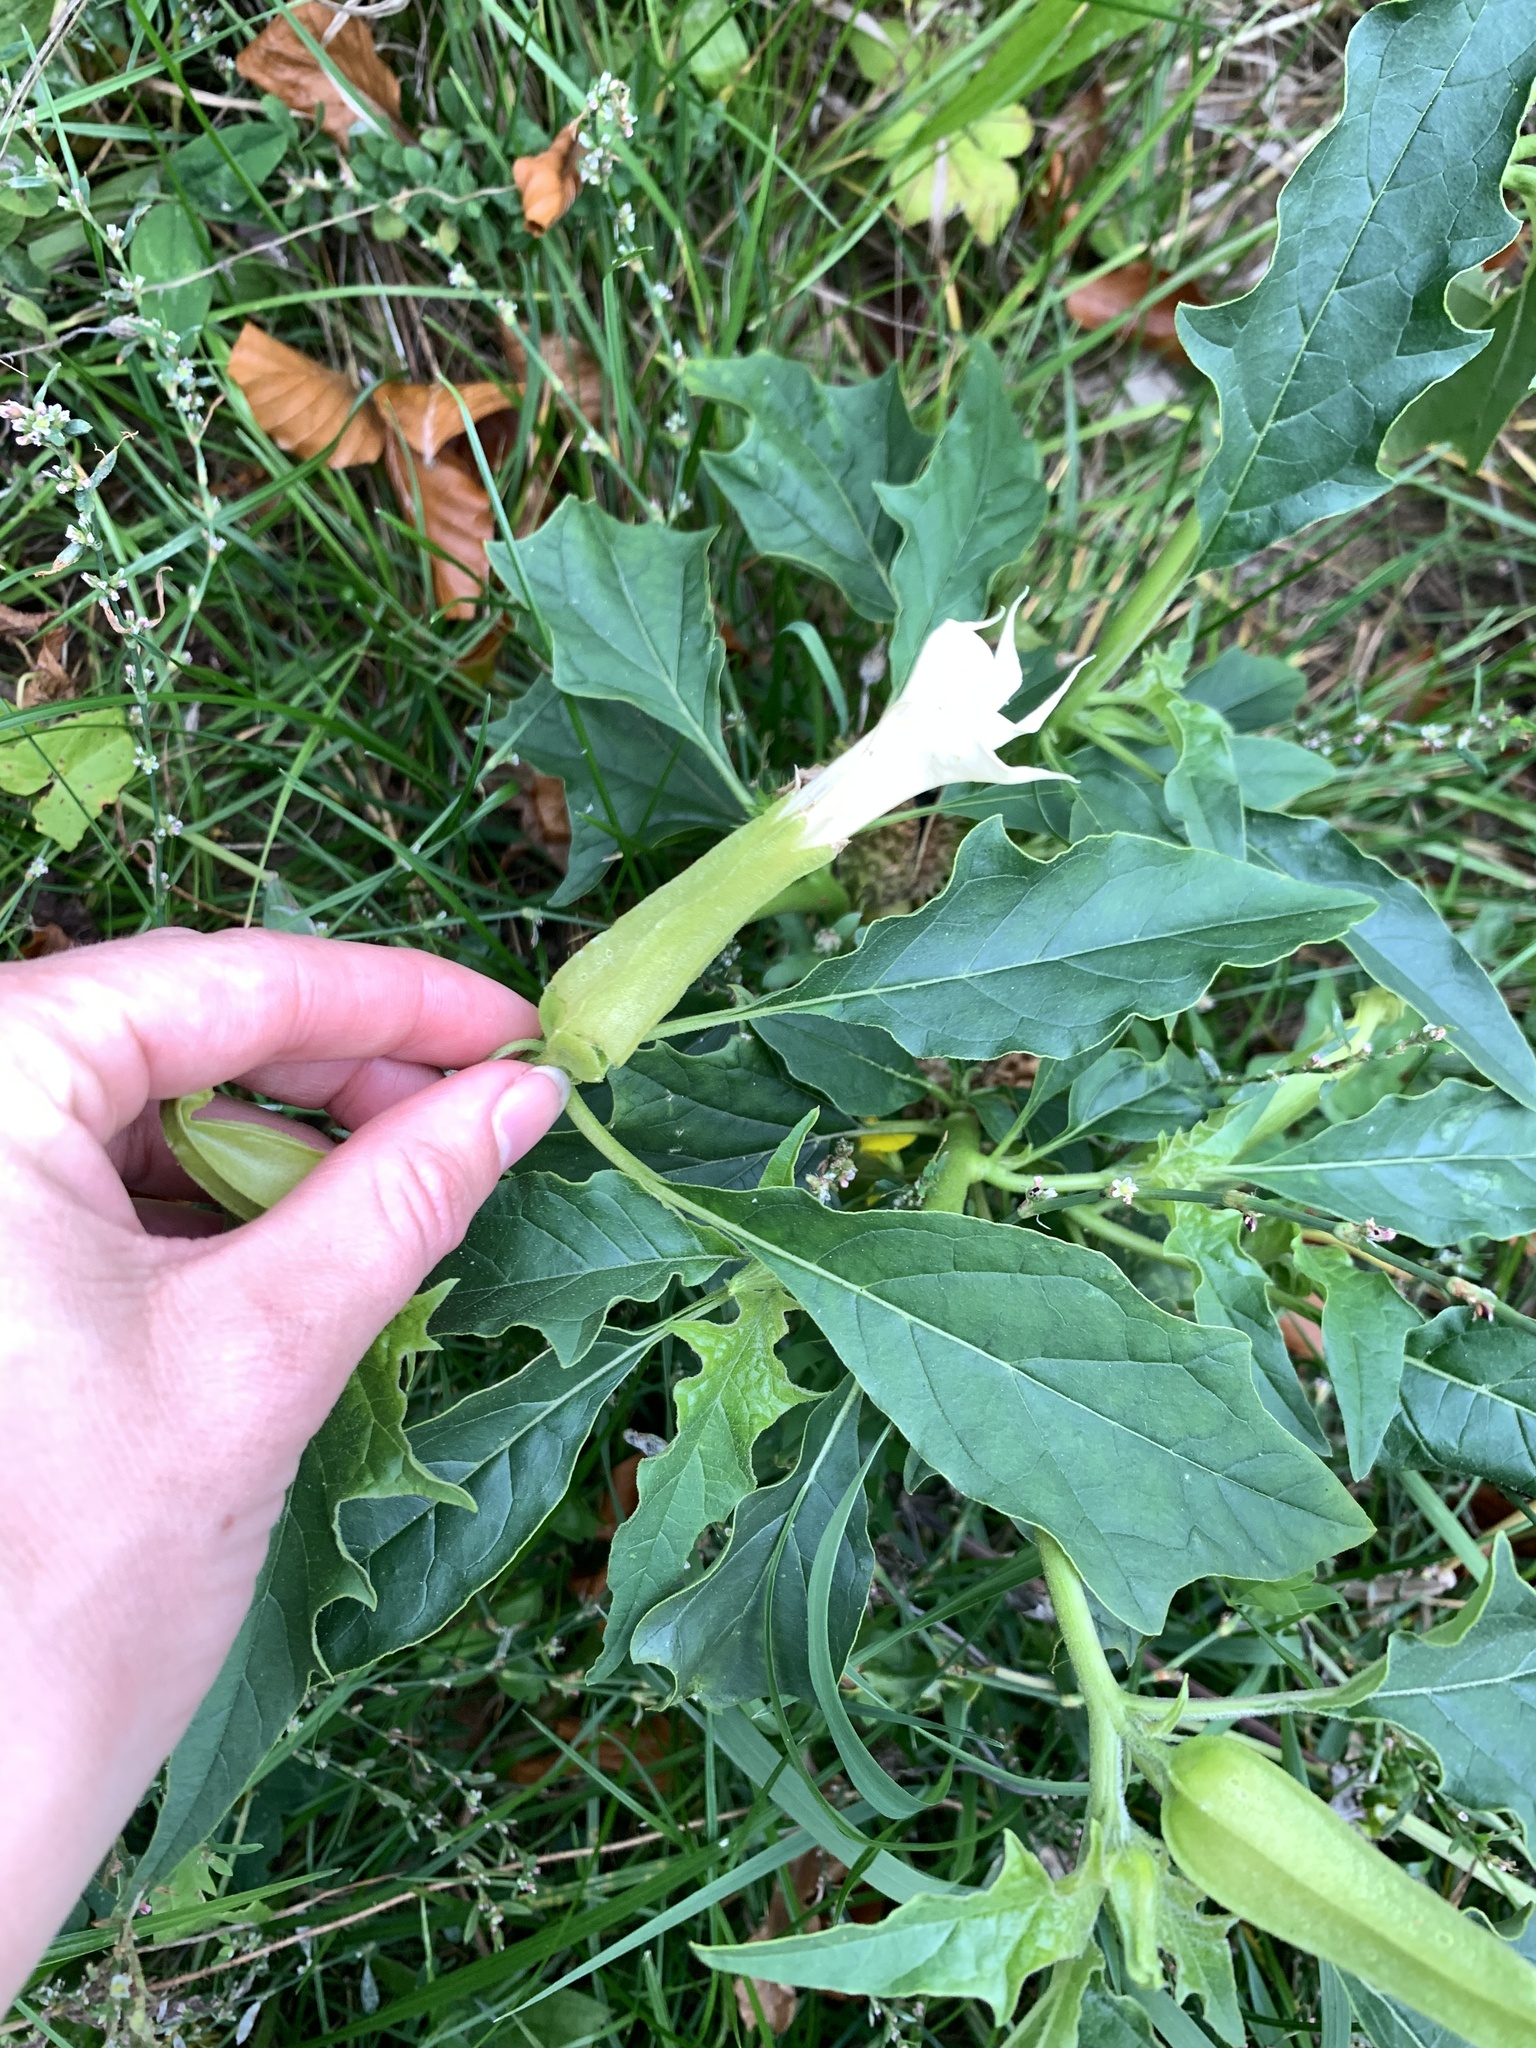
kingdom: Plantae
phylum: Tracheophyta
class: Magnoliopsida
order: Solanales
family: Solanaceae
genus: Datura
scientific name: Datura stramonium
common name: Thorn-apple
